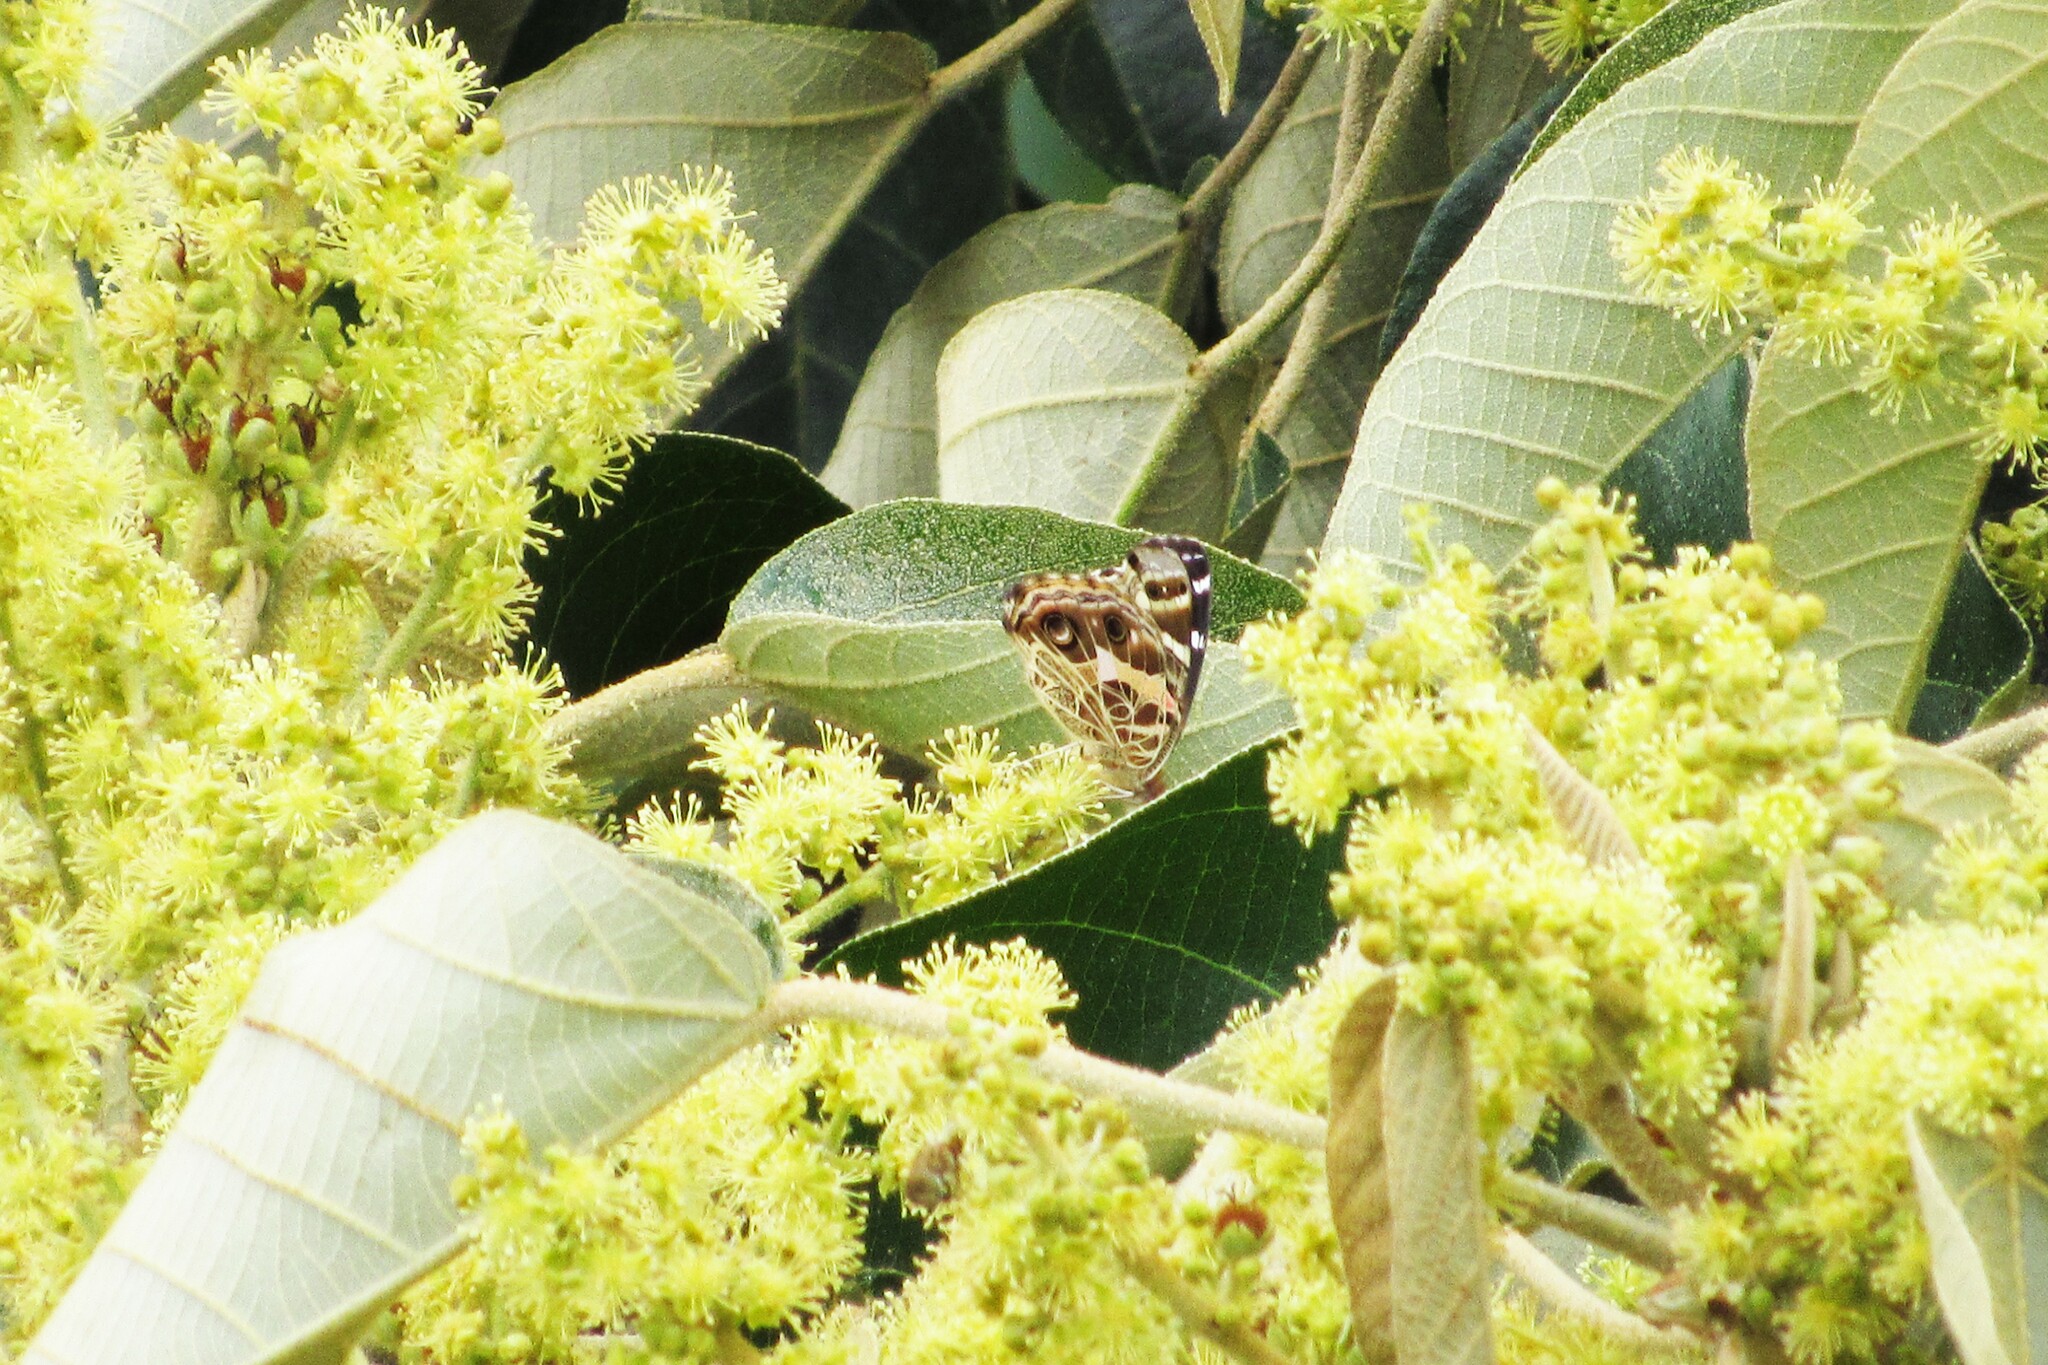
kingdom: Animalia
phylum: Arthropoda
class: Insecta
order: Lepidoptera
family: Nymphalidae
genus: Vanessa
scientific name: Vanessa braziliensis
